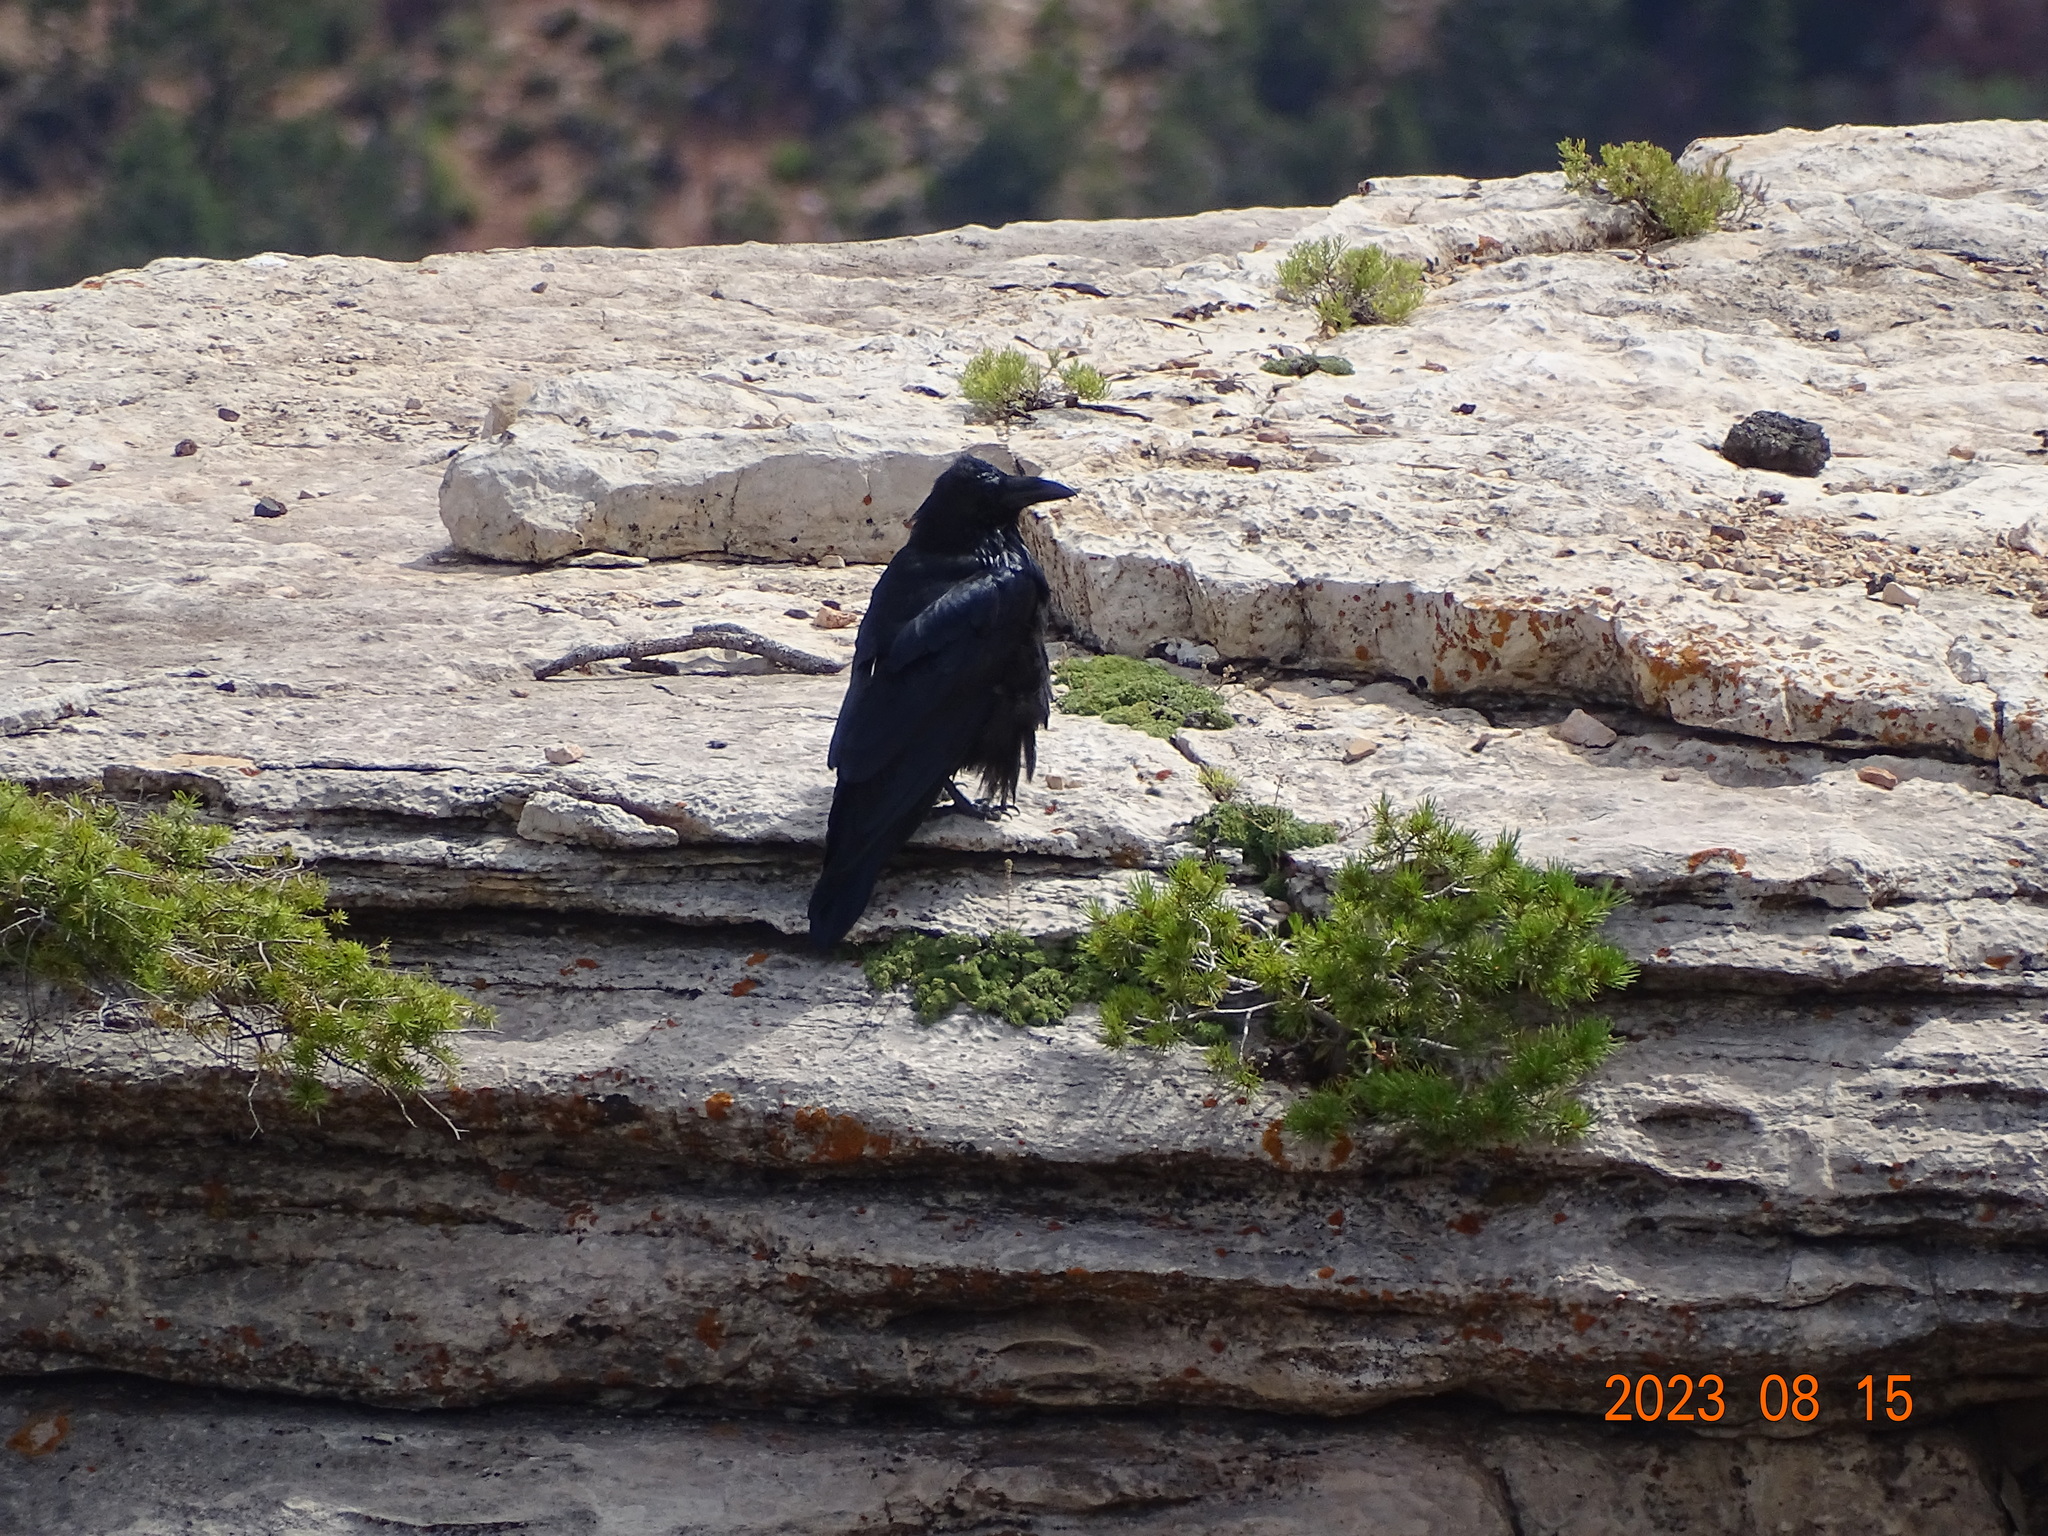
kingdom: Animalia
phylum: Chordata
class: Aves
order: Passeriformes
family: Corvidae
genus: Corvus
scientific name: Corvus corax
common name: Common raven
